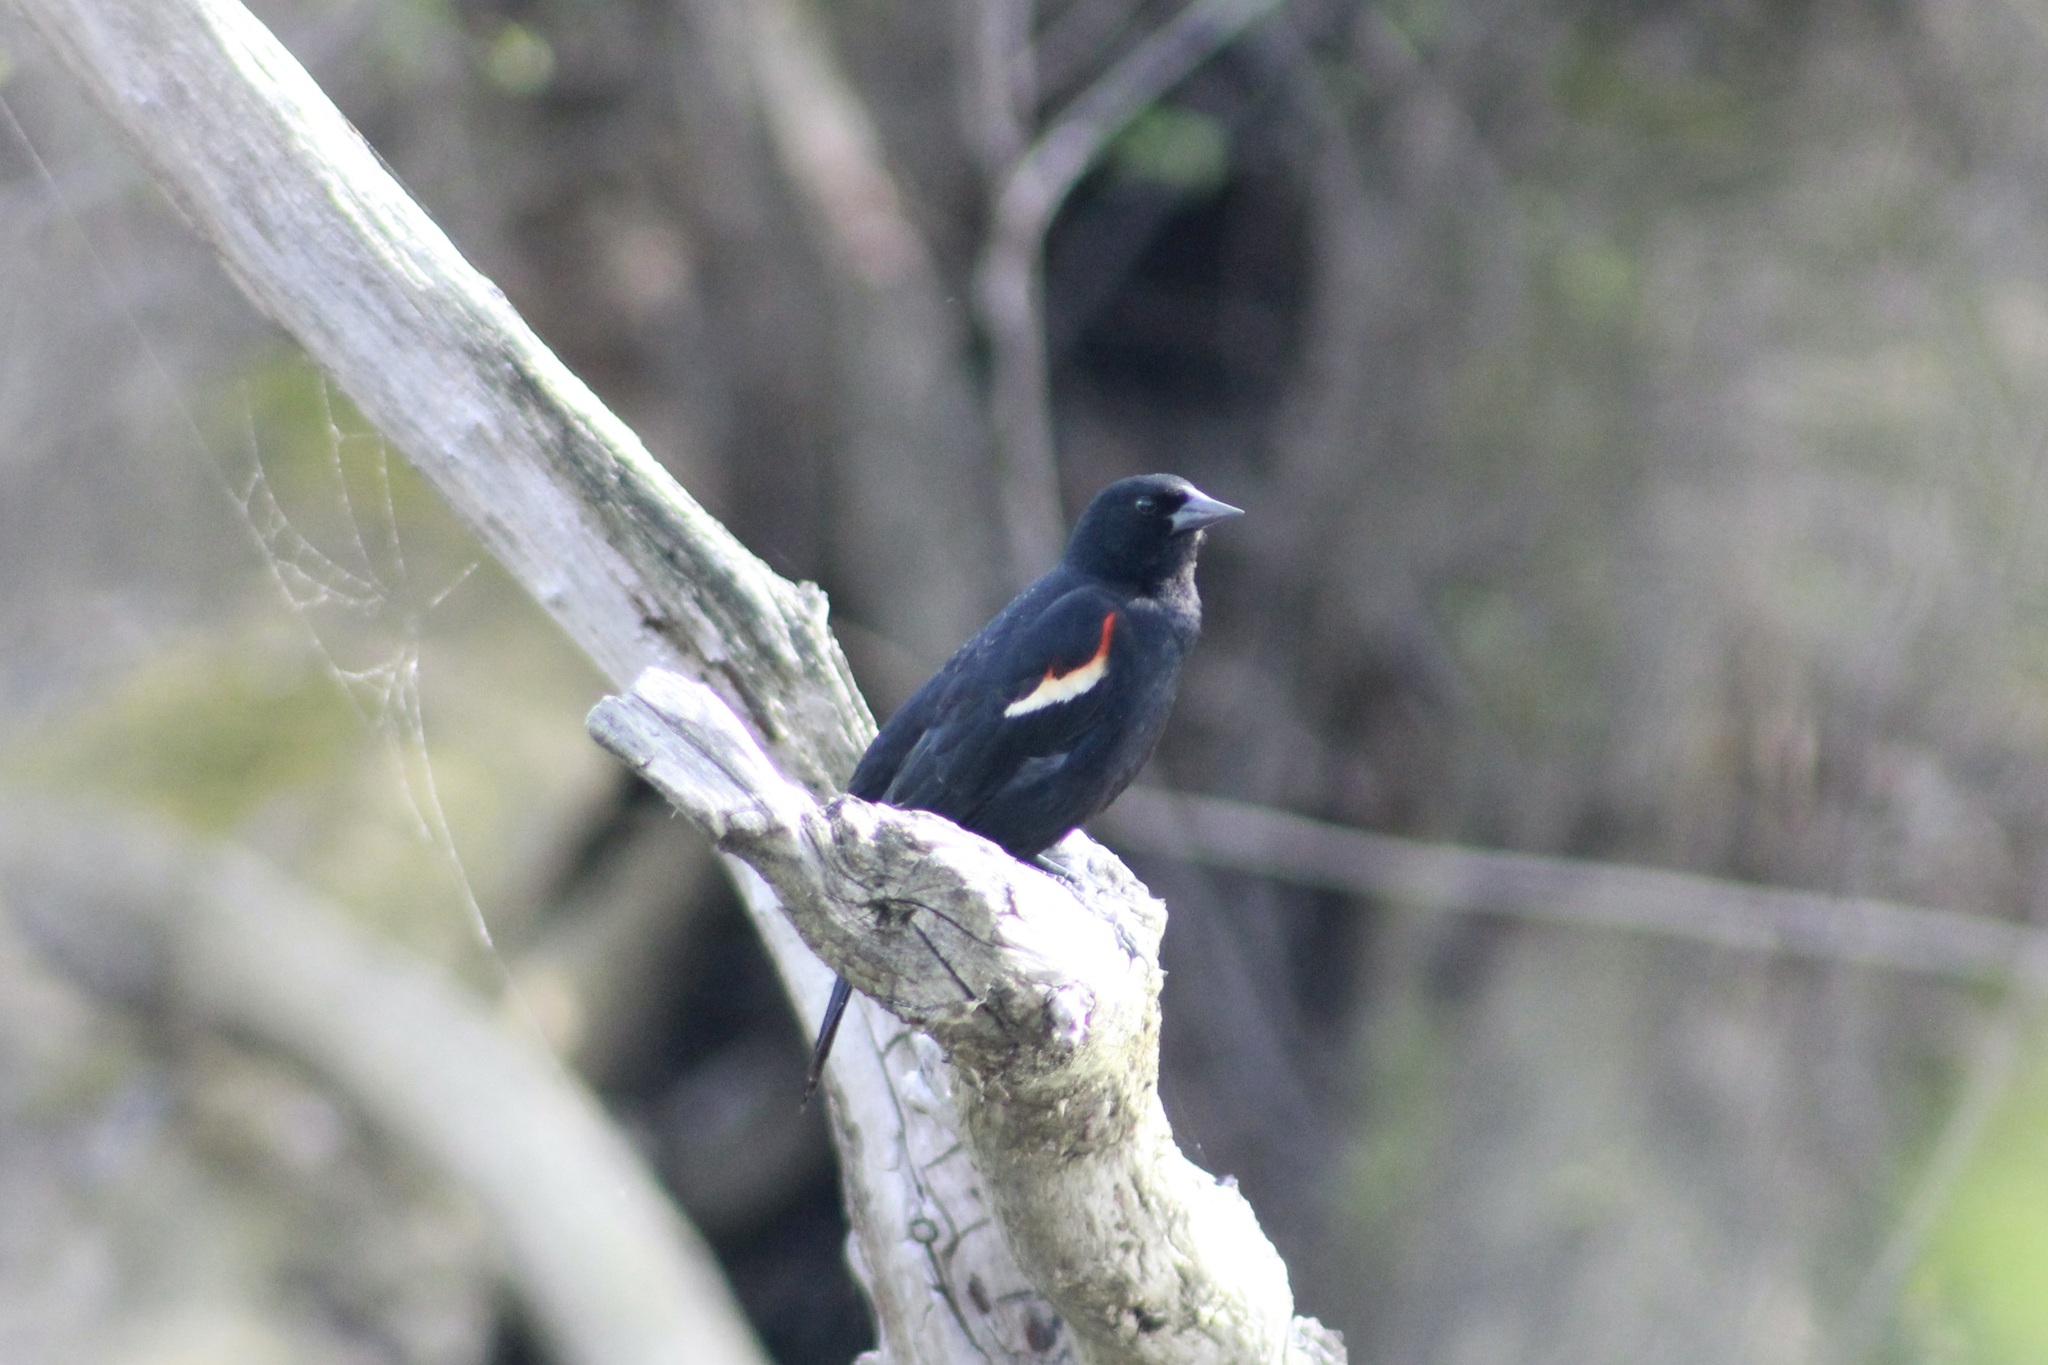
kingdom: Animalia
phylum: Chordata
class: Aves
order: Passeriformes
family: Icteridae
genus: Agelaius
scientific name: Agelaius phoeniceus
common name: Red-winged blackbird
